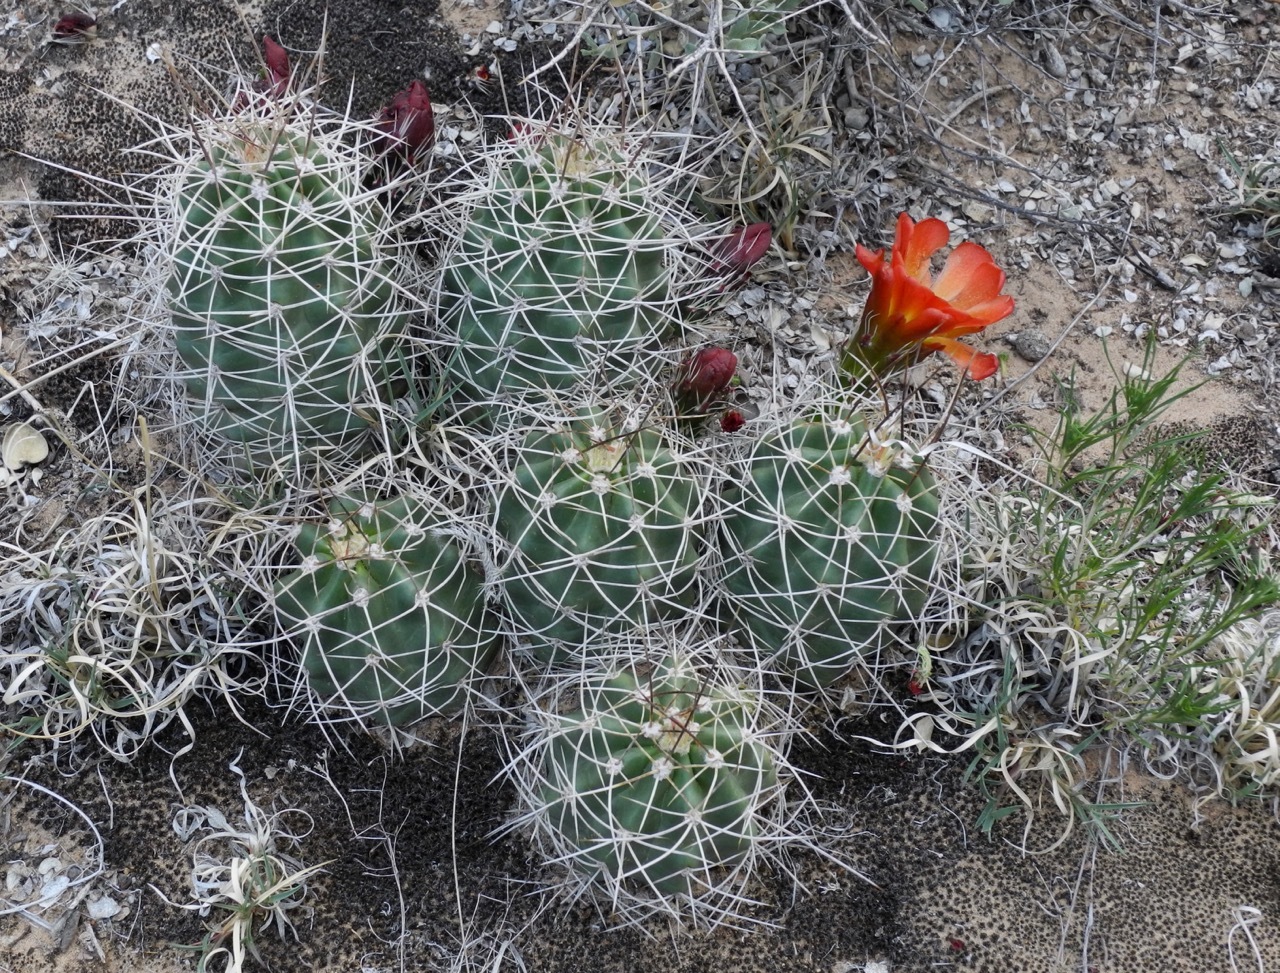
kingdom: Plantae
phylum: Tracheophyta
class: Magnoliopsida
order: Caryophyllales
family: Cactaceae
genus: Echinocereus
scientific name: Echinocereus triglochidiatus
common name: Claretcup hedgehog
